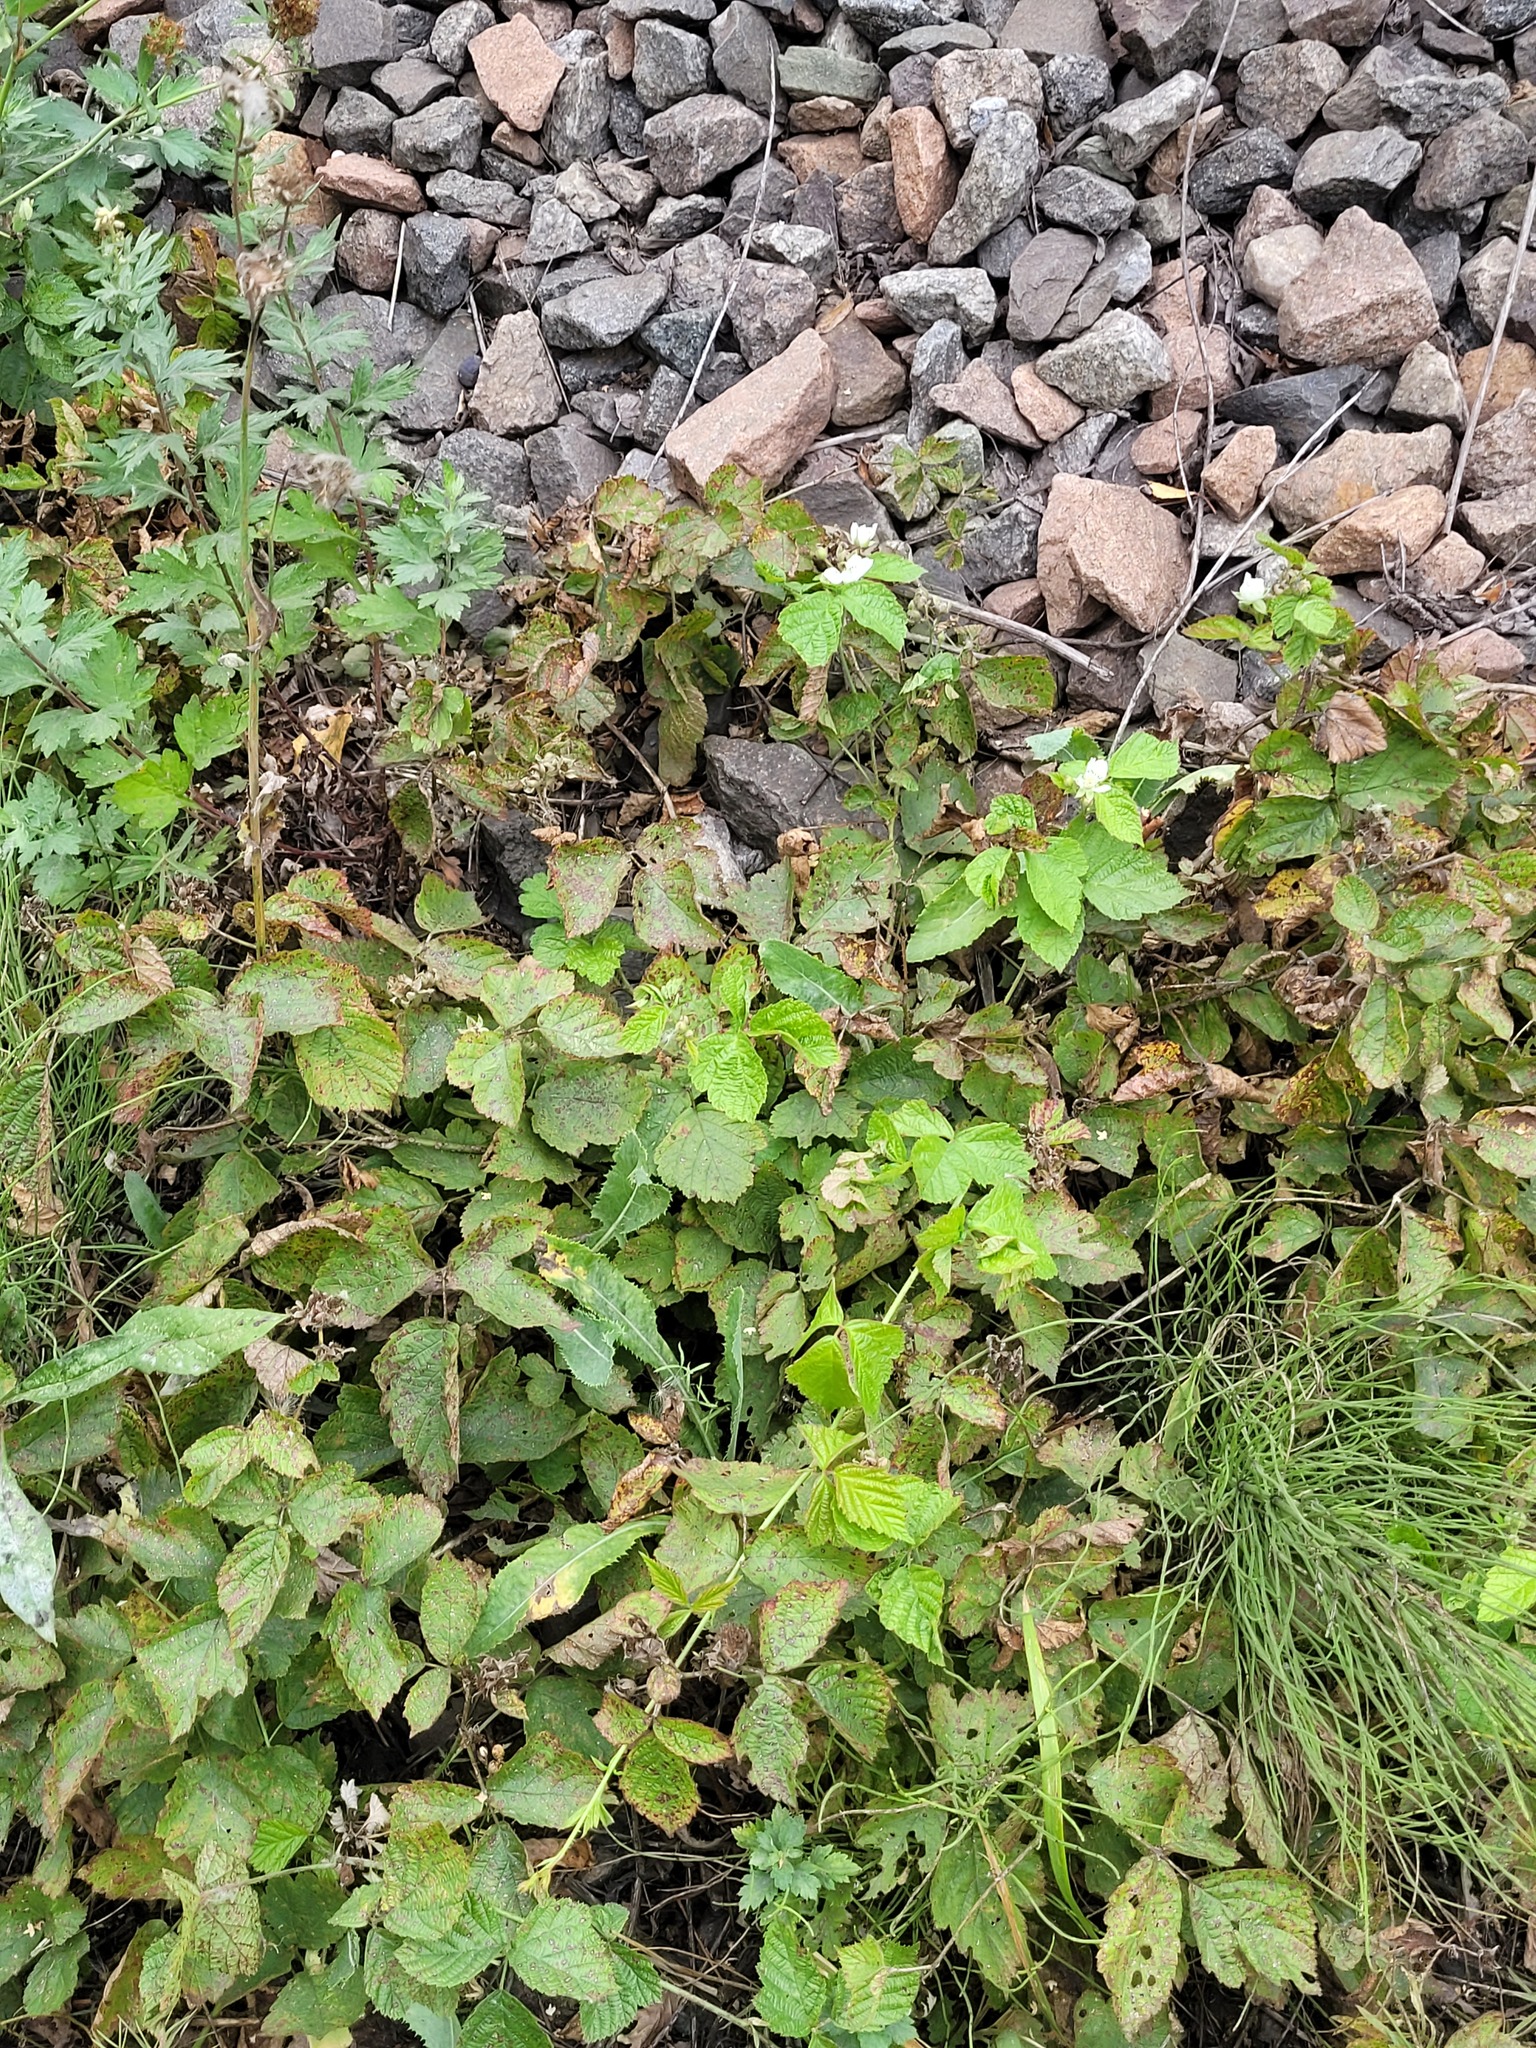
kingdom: Plantae
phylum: Tracheophyta
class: Magnoliopsida
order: Rosales
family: Rosaceae
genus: Rubus
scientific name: Rubus caesius
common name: Dewberry
